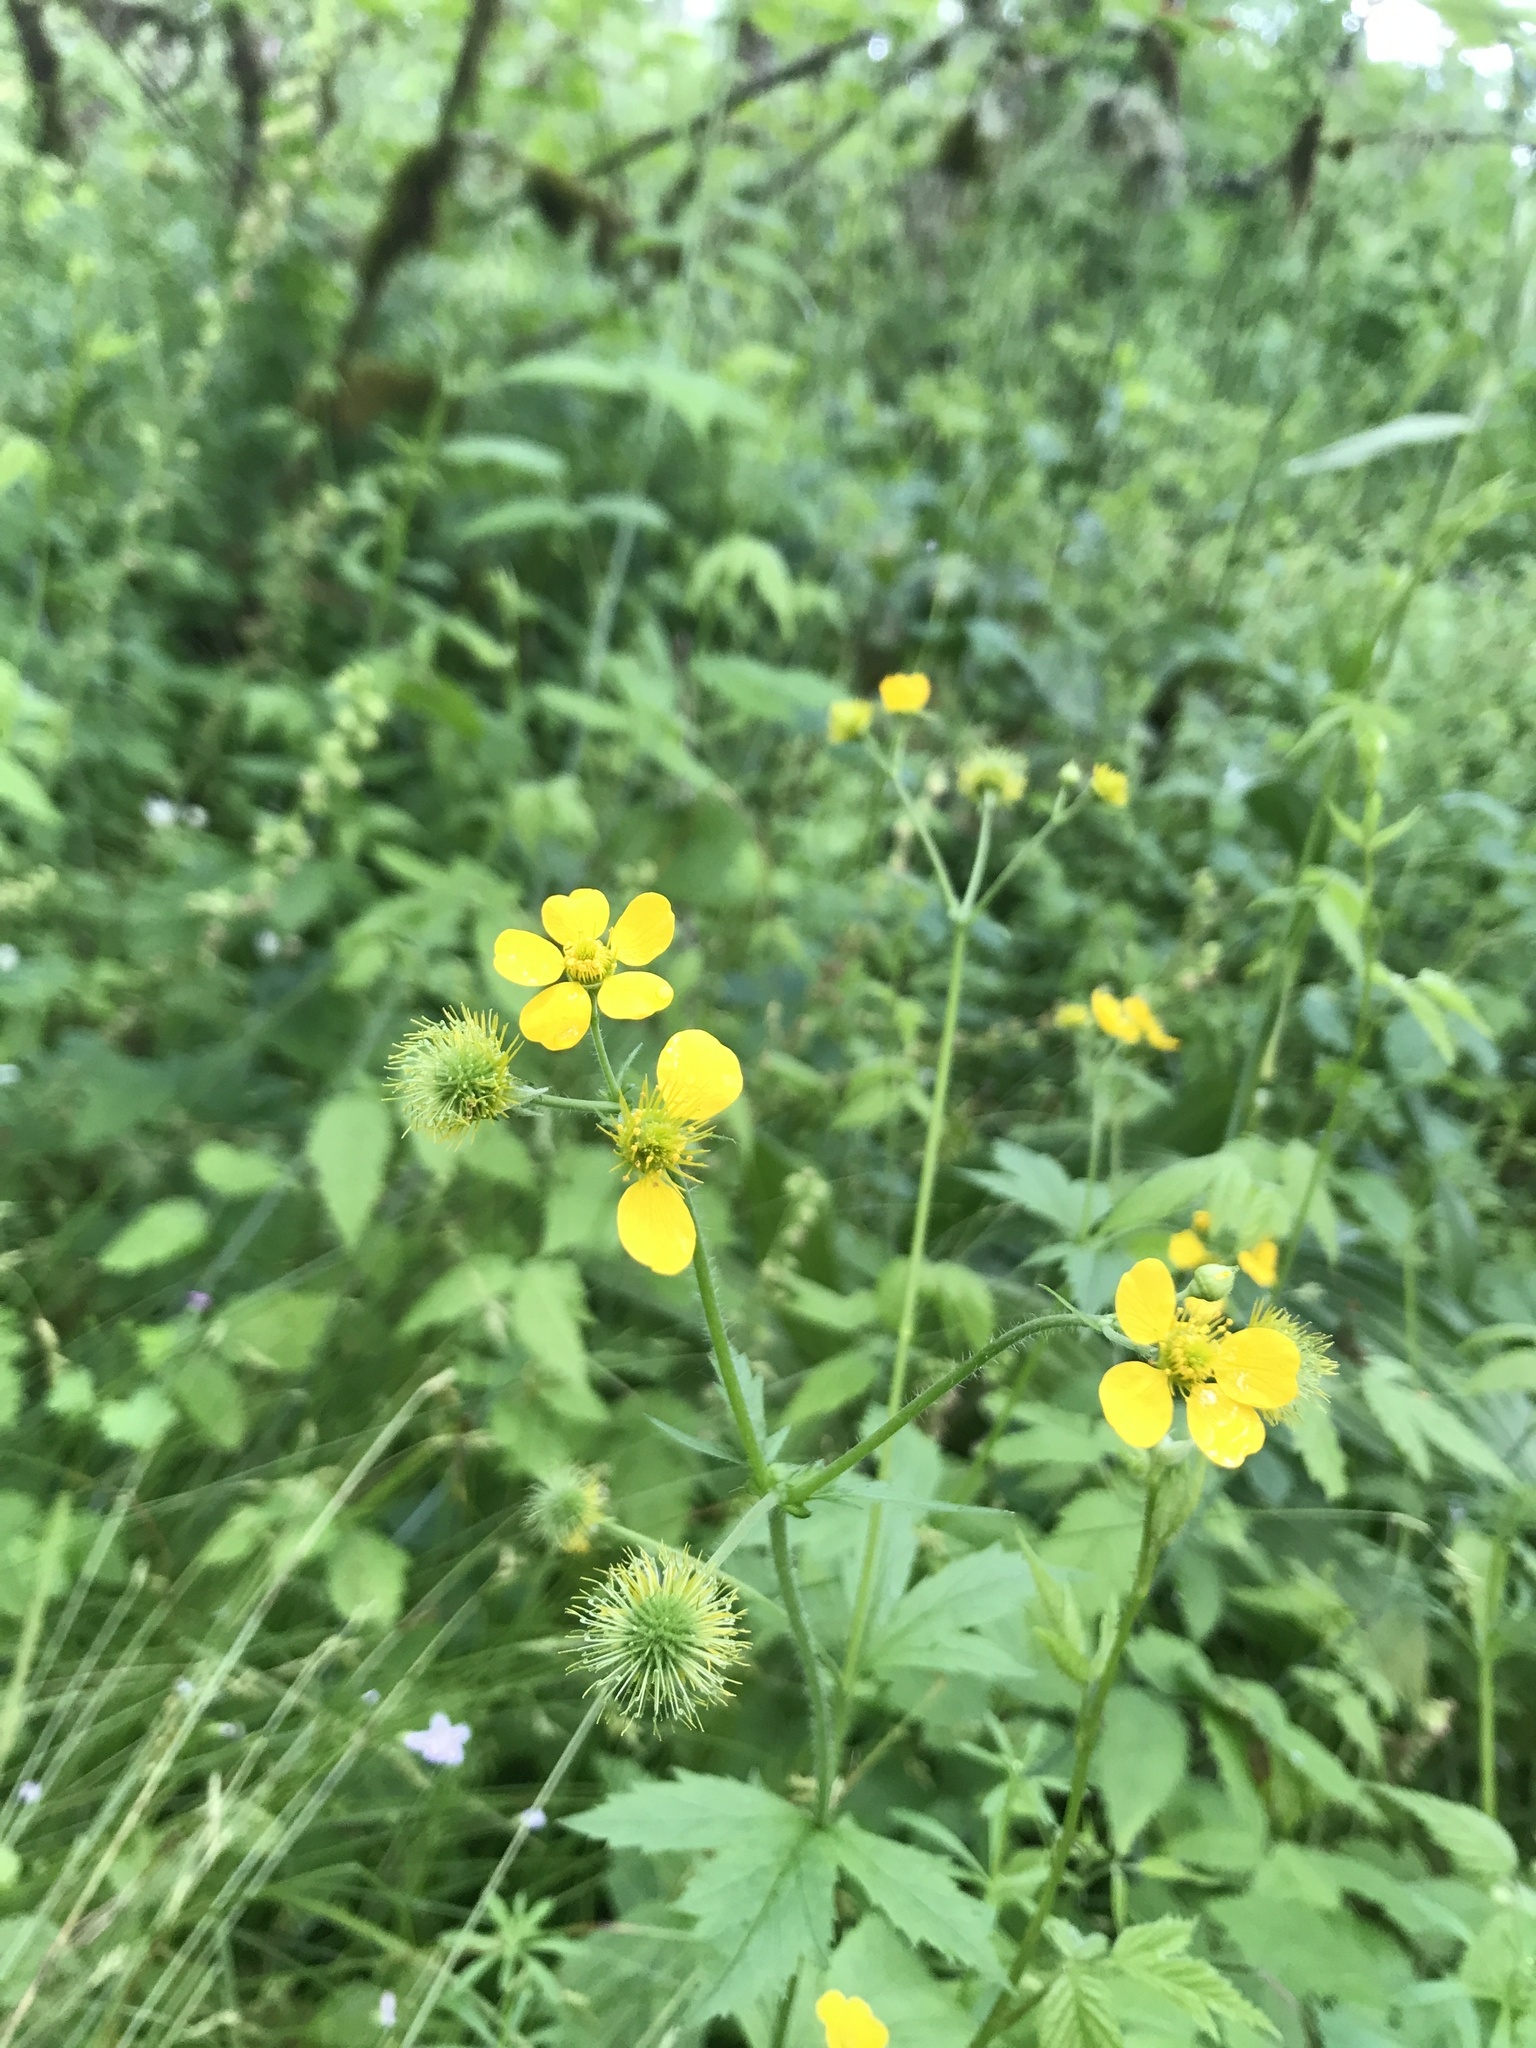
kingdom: Plantae
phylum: Tracheophyta
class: Magnoliopsida
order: Rosales
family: Rosaceae
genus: Geum
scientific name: Geum macrophyllum
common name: Large-leaved avens
